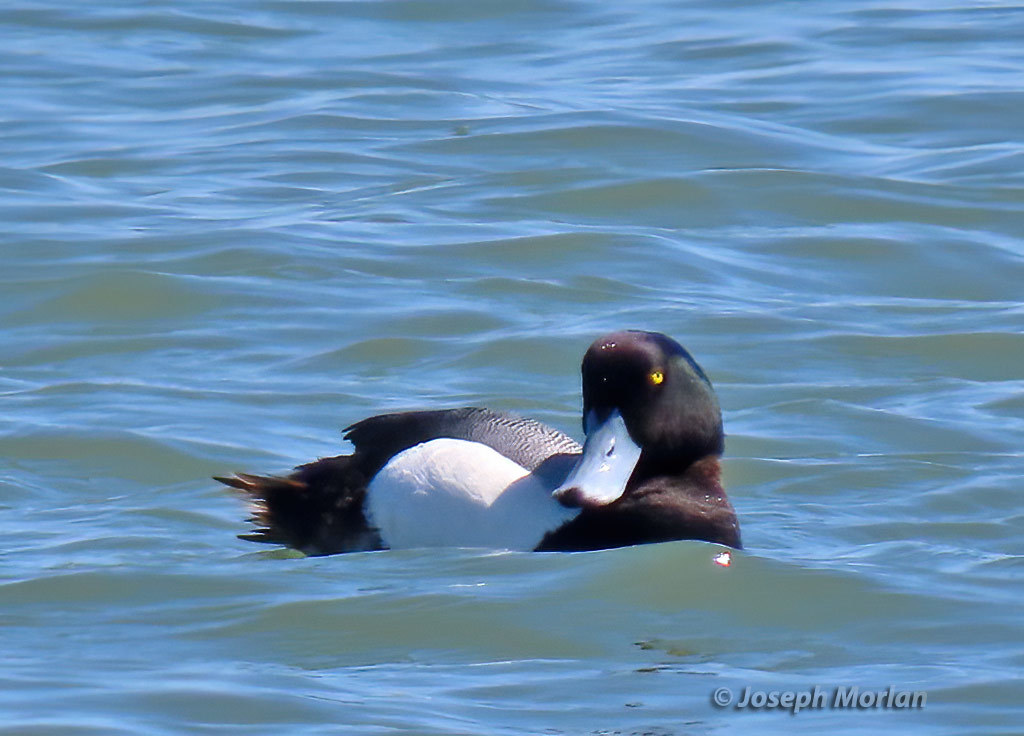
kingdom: Animalia
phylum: Chordata
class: Aves
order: Anseriformes
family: Anatidae
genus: Aythya
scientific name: Aythya marila
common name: Greater scaup
